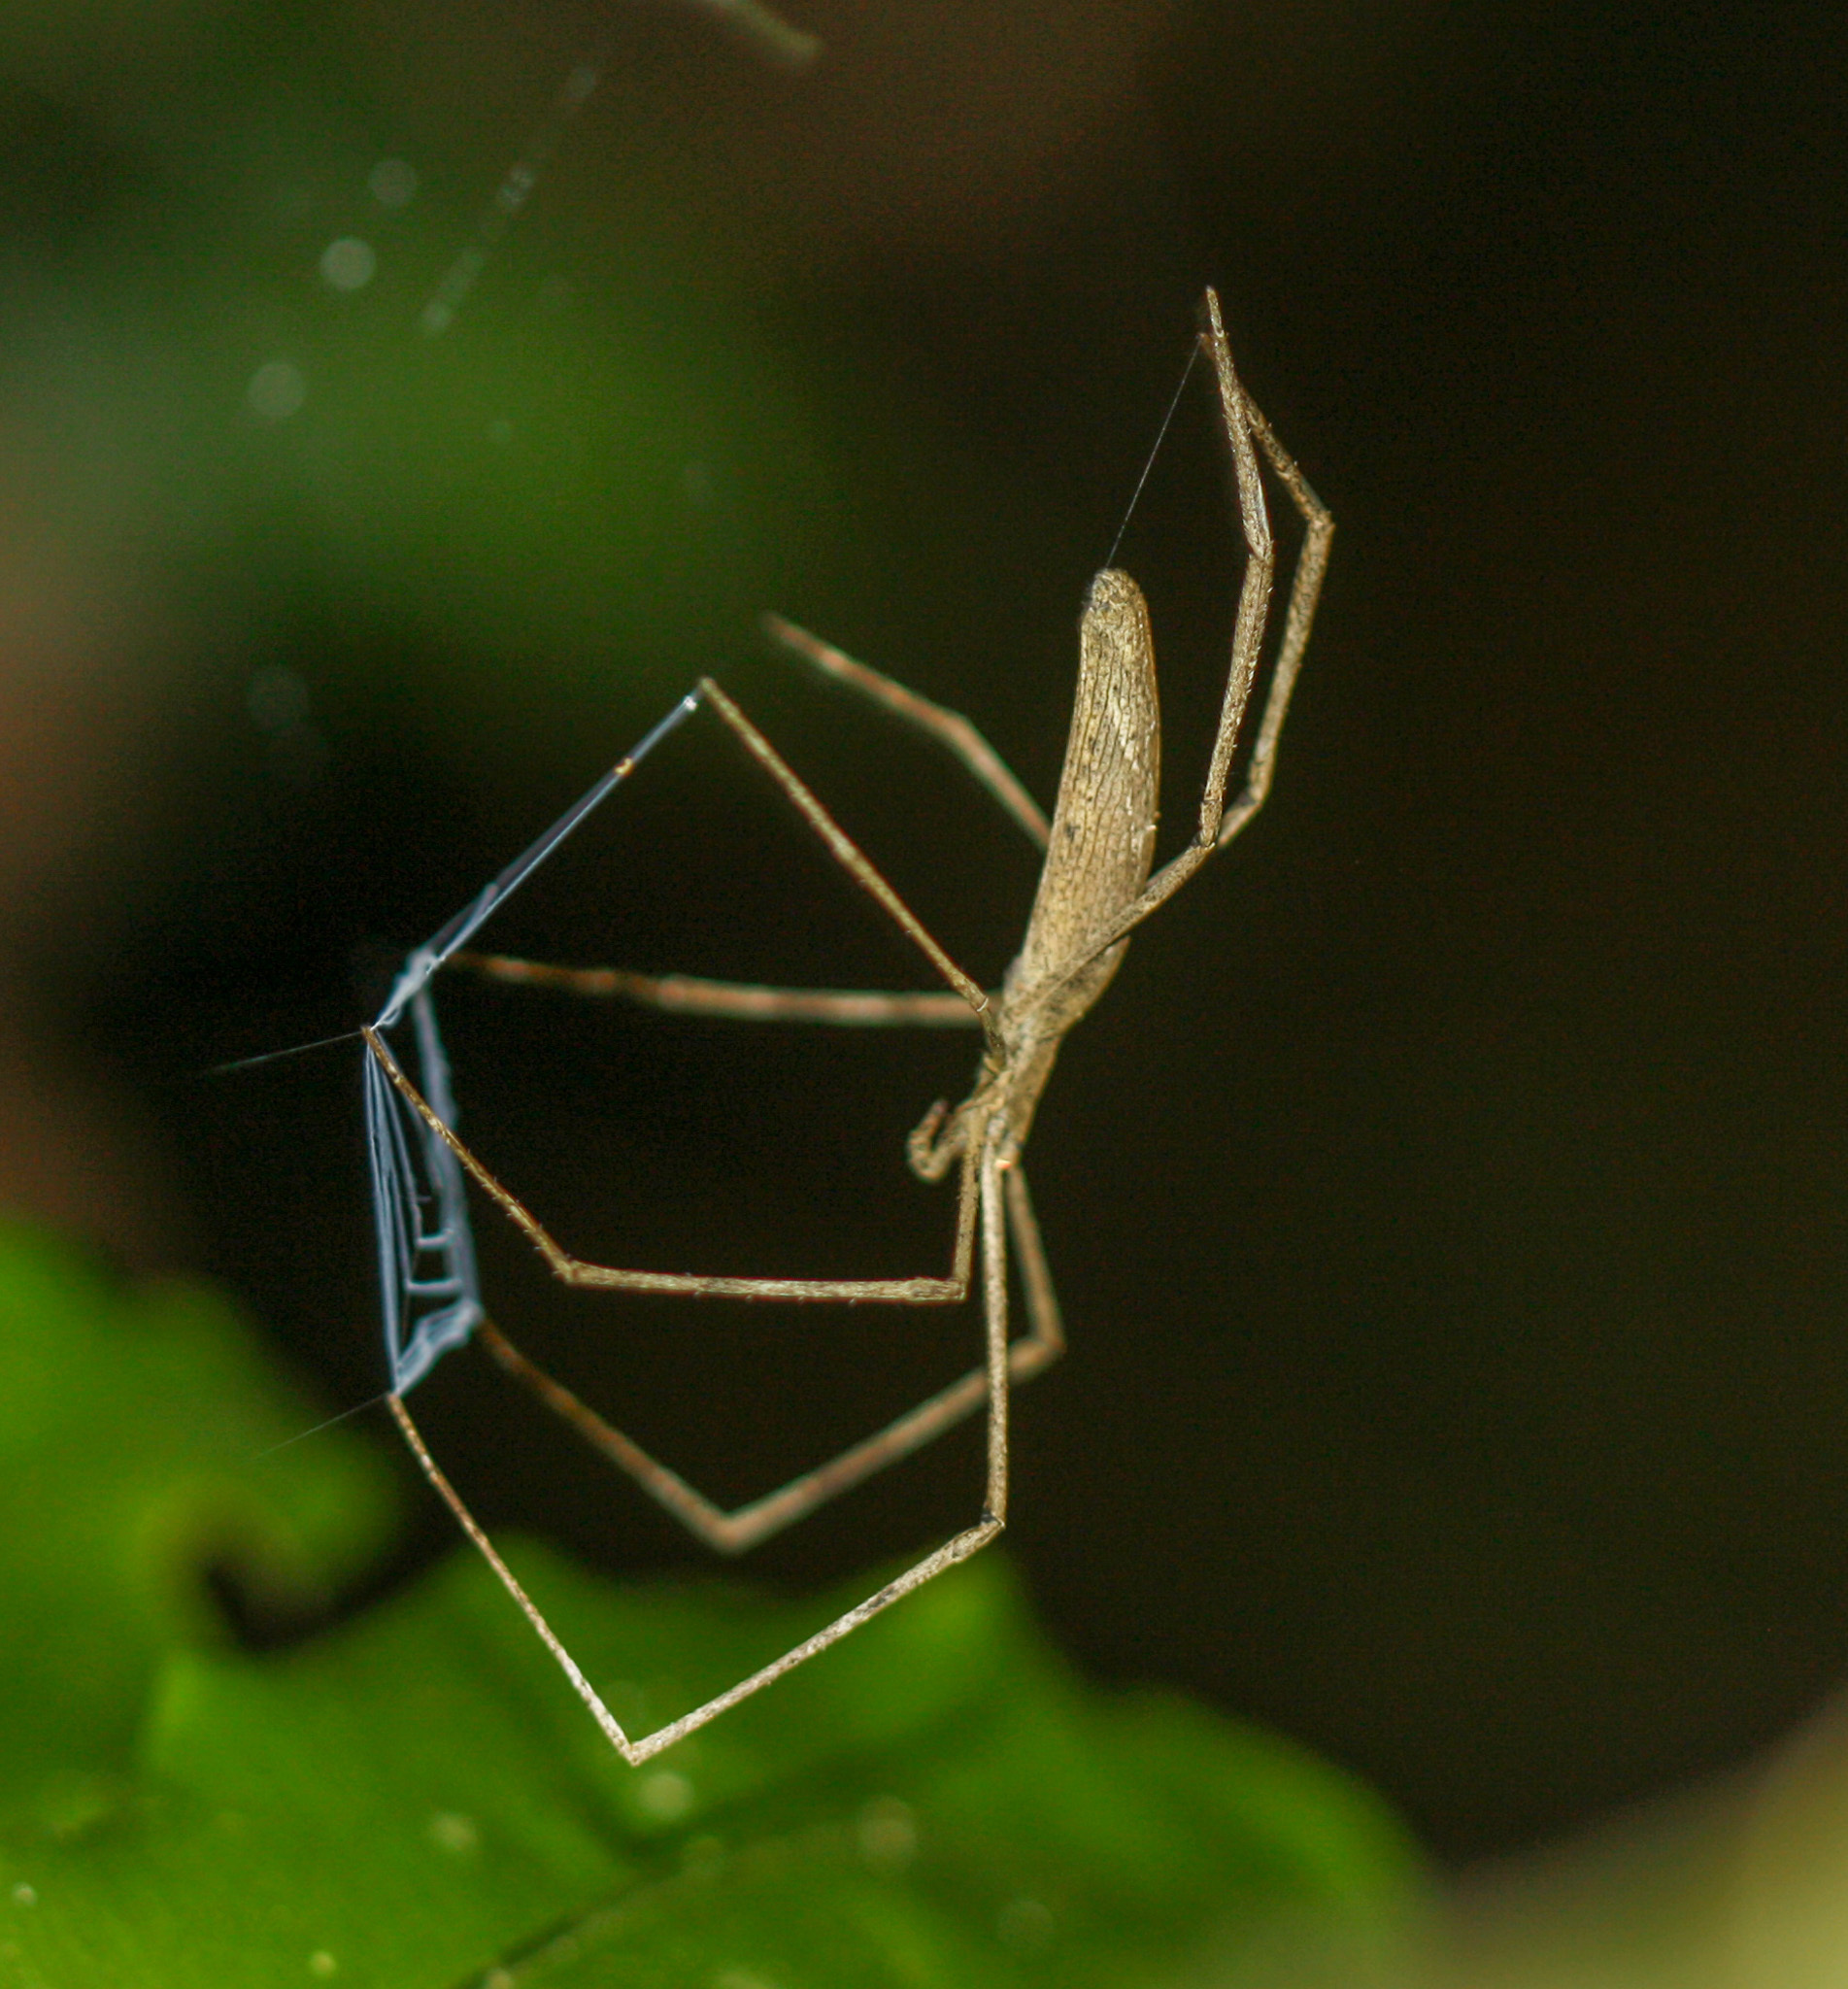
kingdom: Animalia
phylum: Arthropoda
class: Arachnida
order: Araneae
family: Deinopidae
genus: Deinopis
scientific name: Deinopis longipes
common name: Ogre faced spiders
